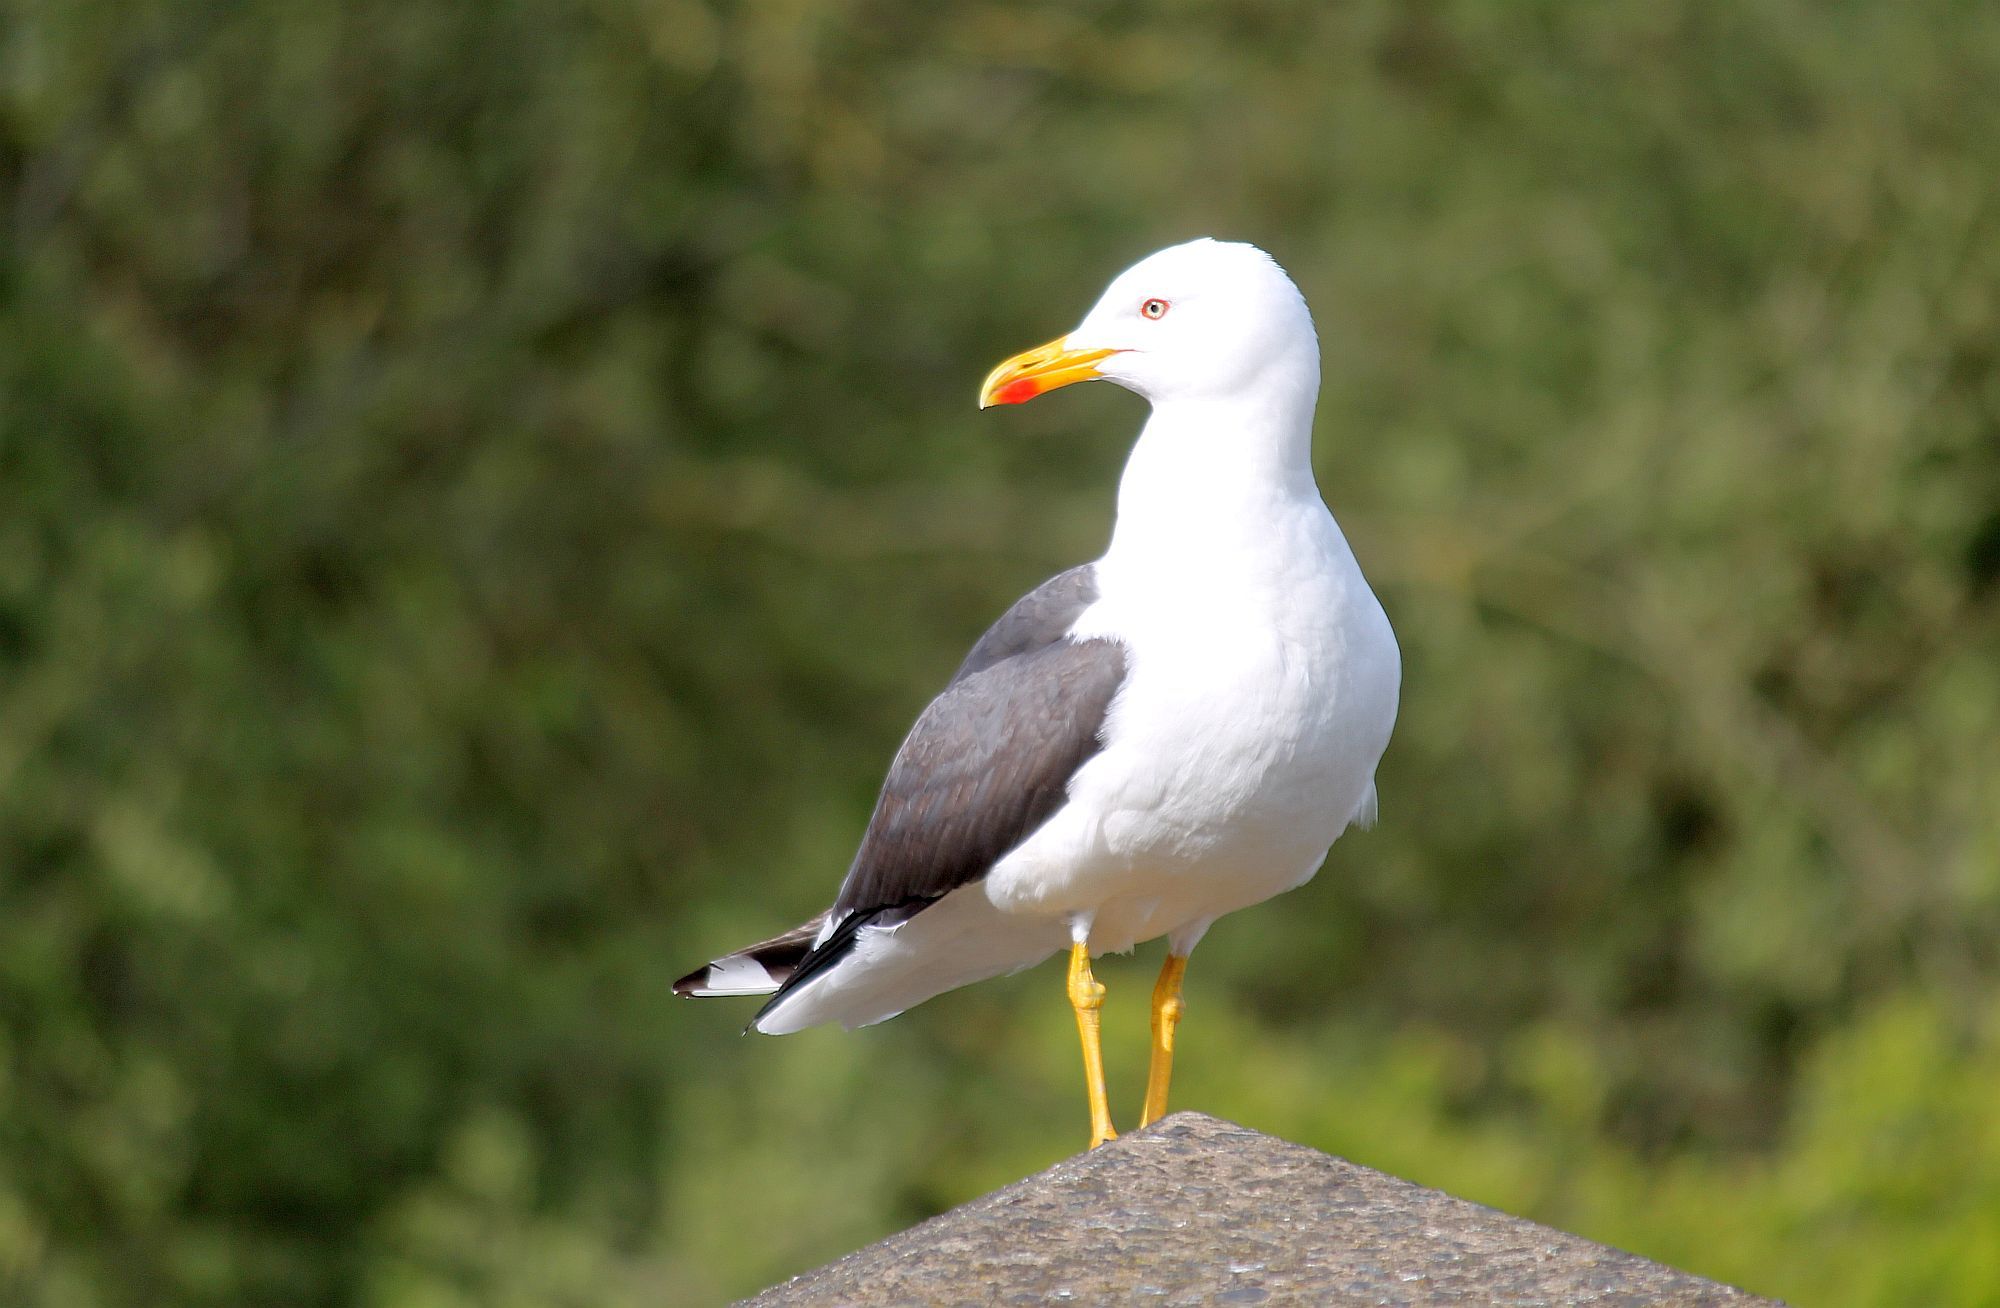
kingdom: Animalia
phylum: Chordata
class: Aves
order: Charadriiformes
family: Laridae
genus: Larus
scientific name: Larus fuscus
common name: Lesser black-backed gull
